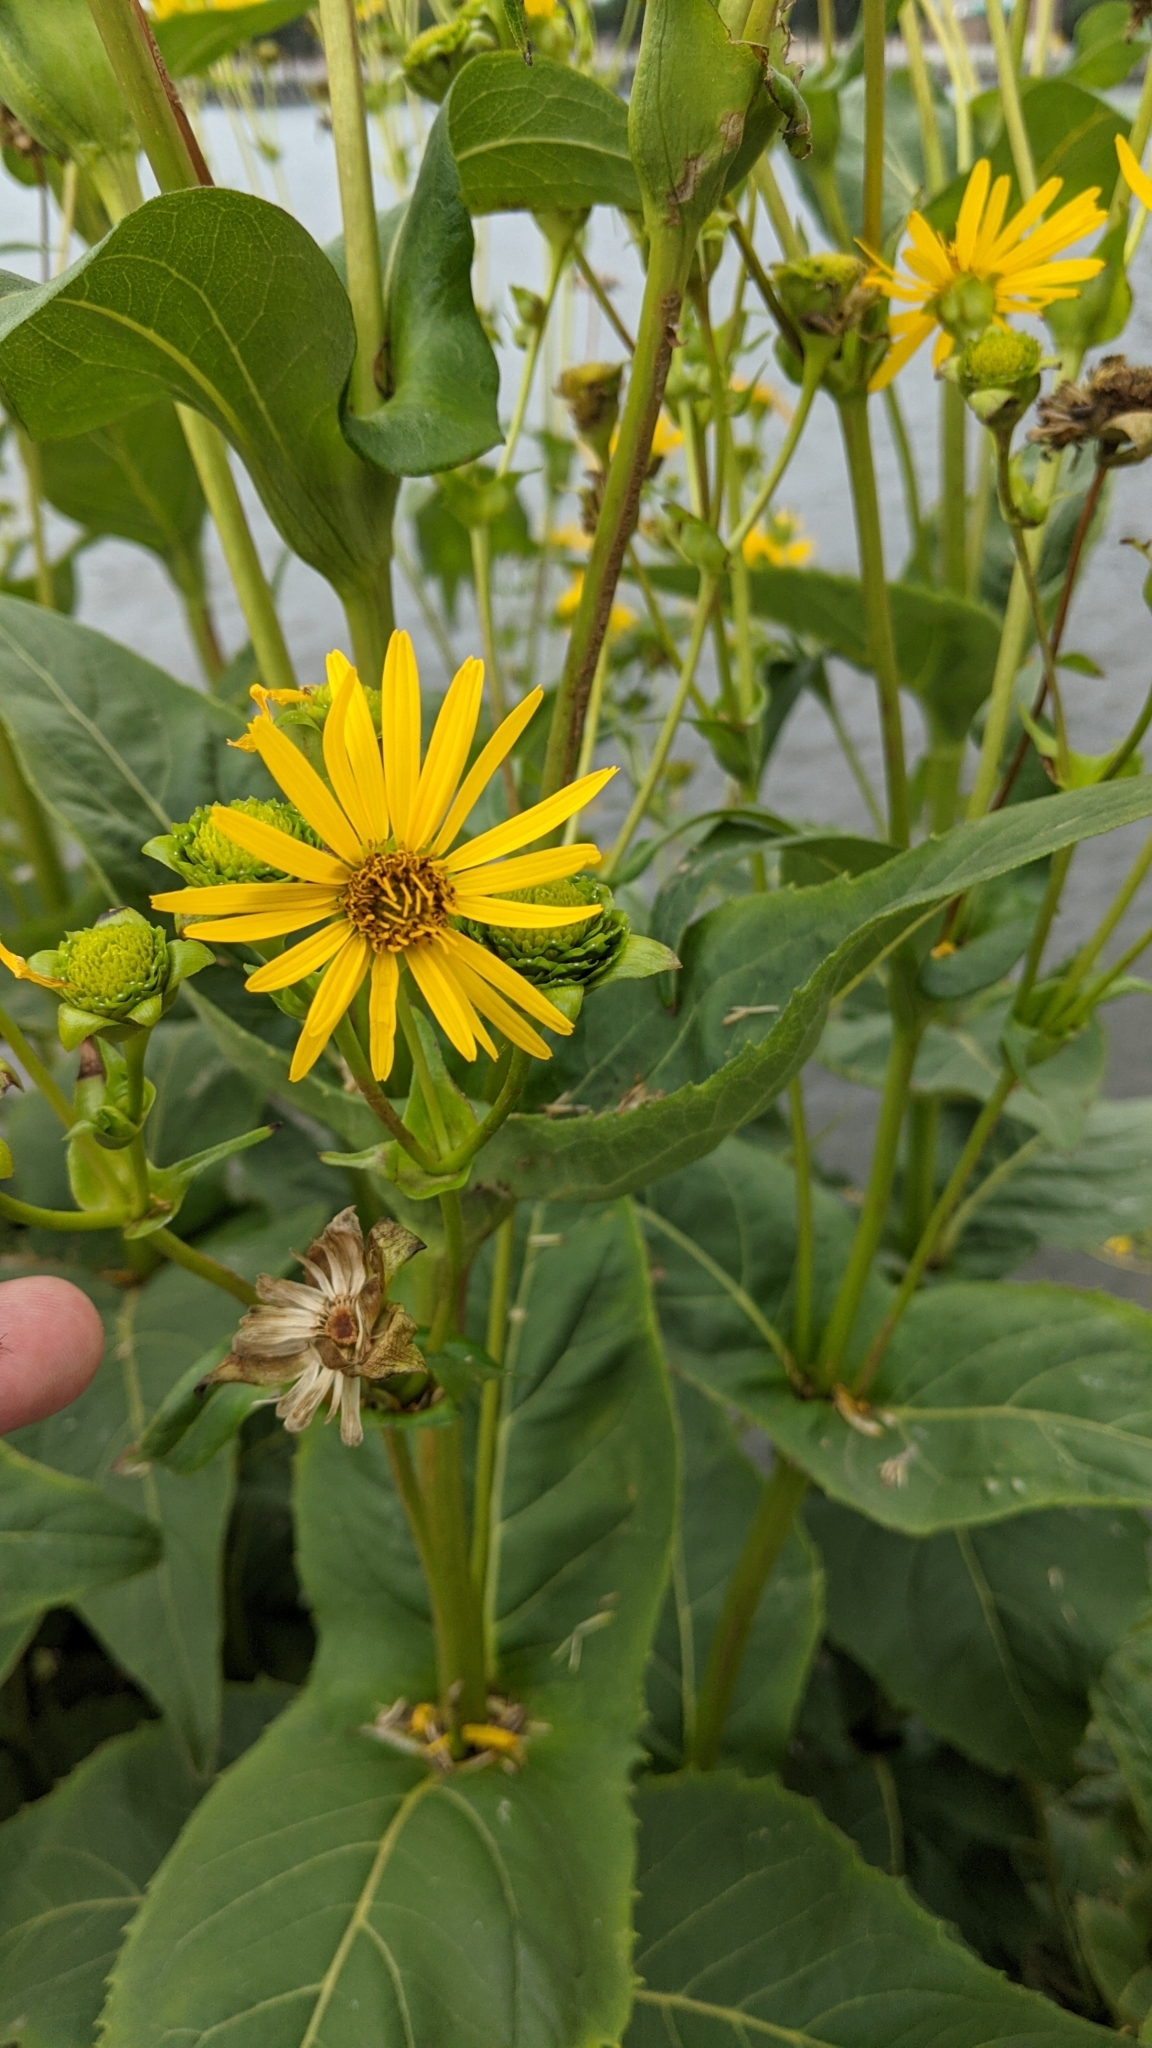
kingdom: Plantae
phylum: Tracheophyta
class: Magnoliopsida
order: Asterales
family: Asteraceae
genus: Silphium
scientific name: Silphium perfoliatum
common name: Cup-plant
